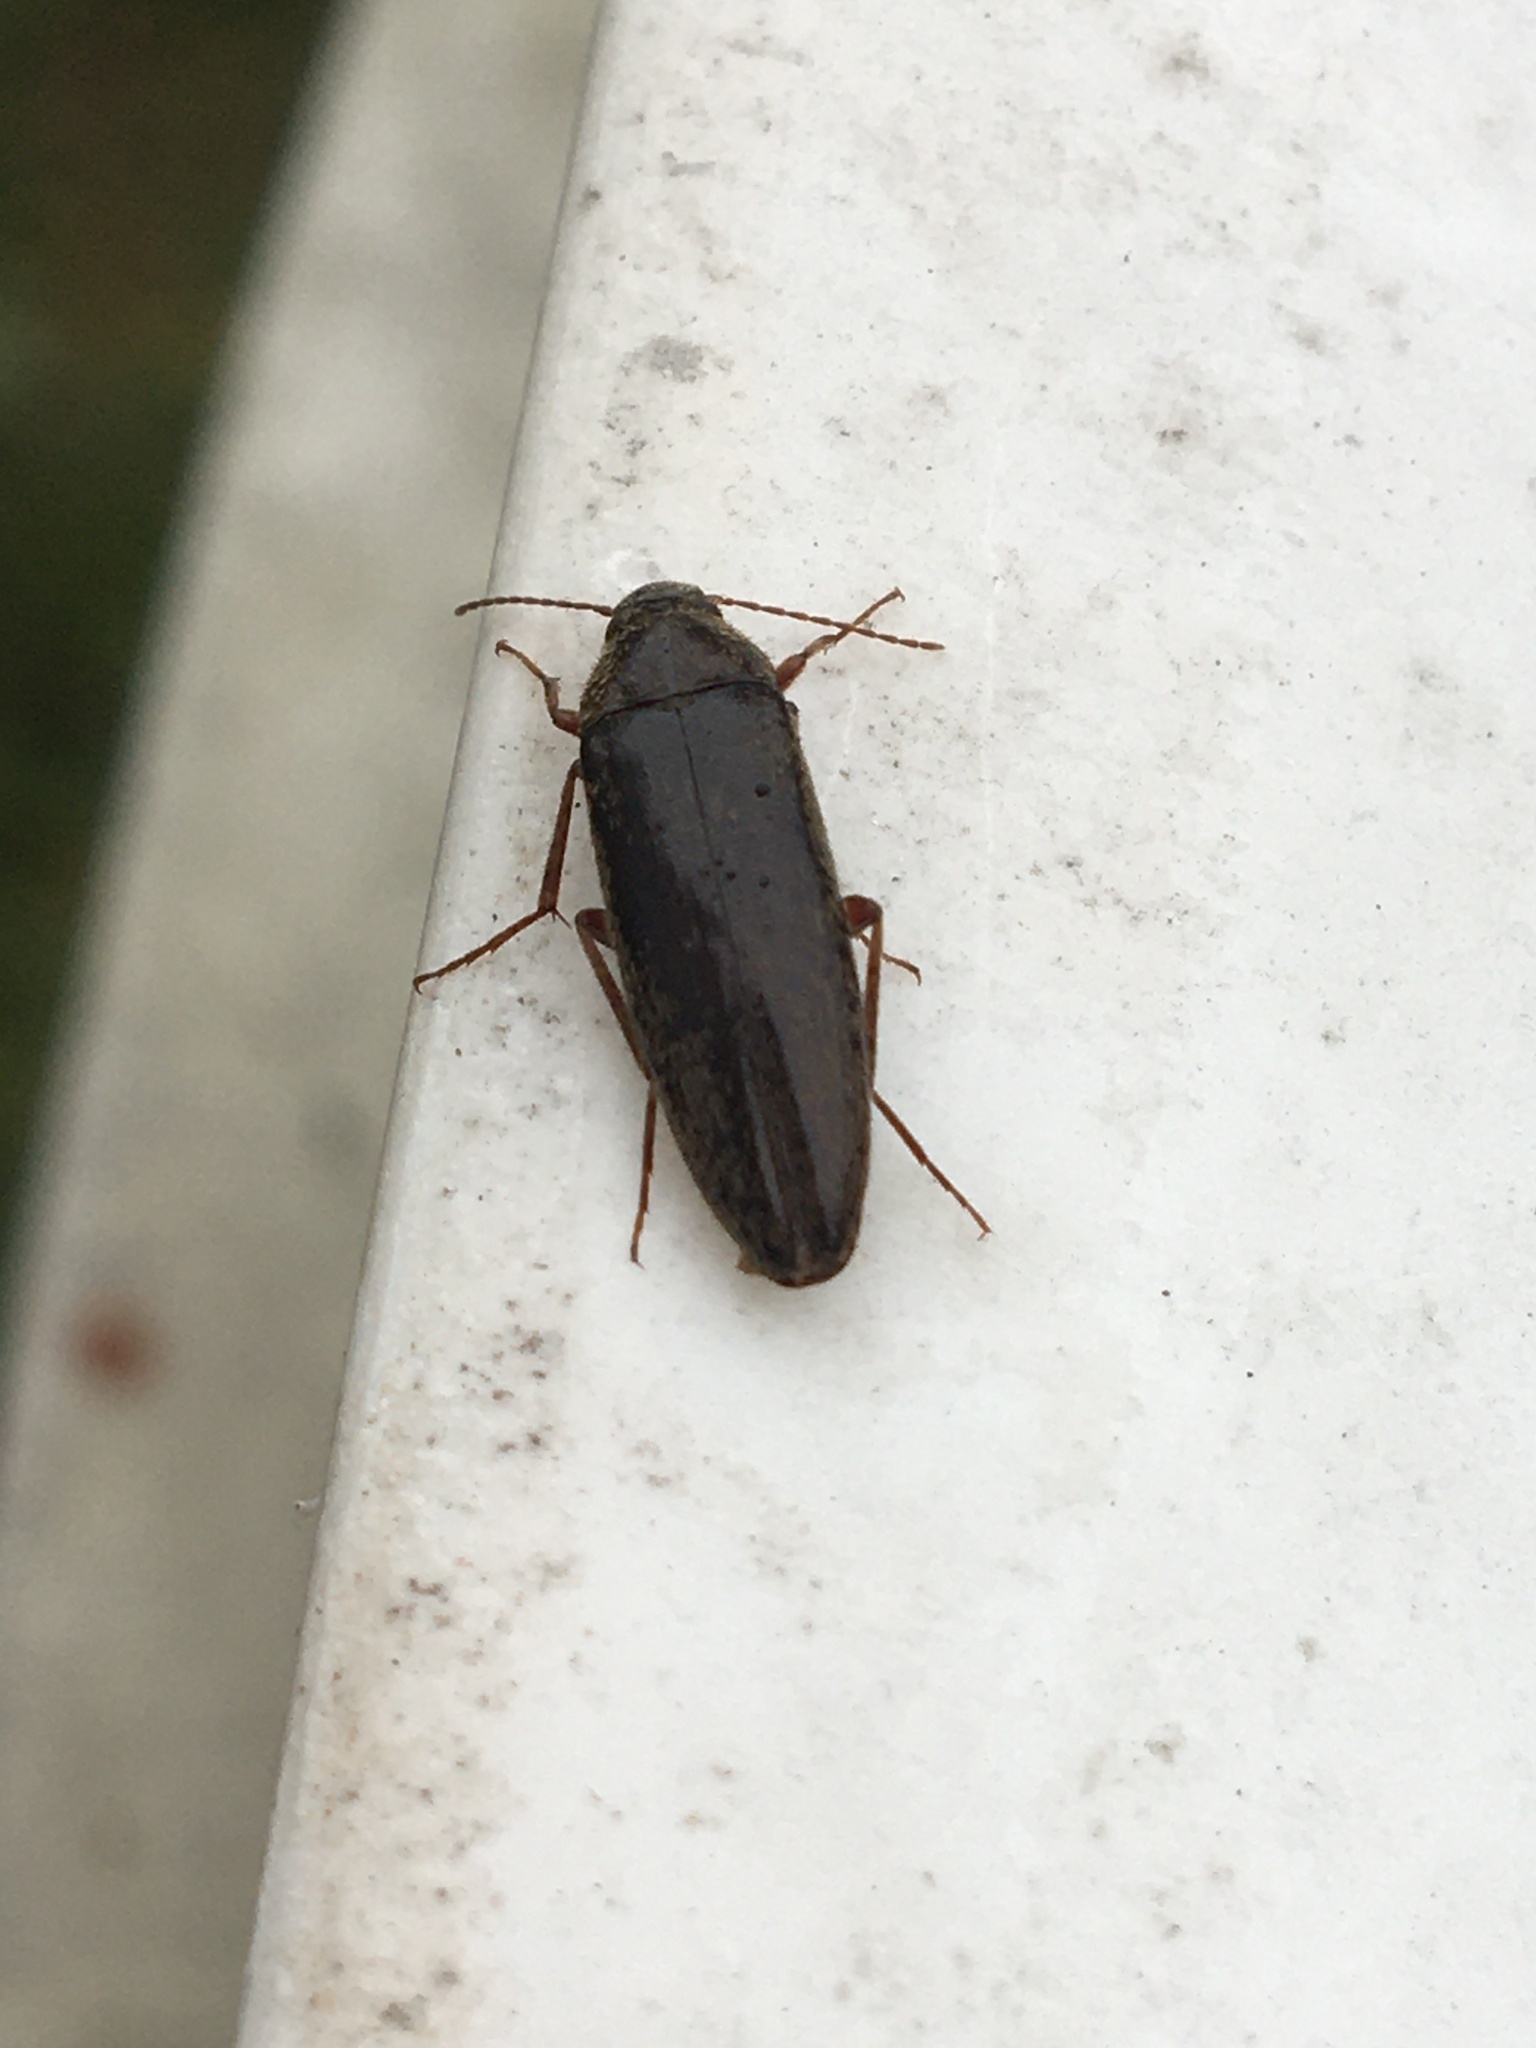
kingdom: Animalia
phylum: Arthropoda
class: Insecta
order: Coleoptera
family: Synchroidae
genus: Synchroa
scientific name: Synchroa punctata
